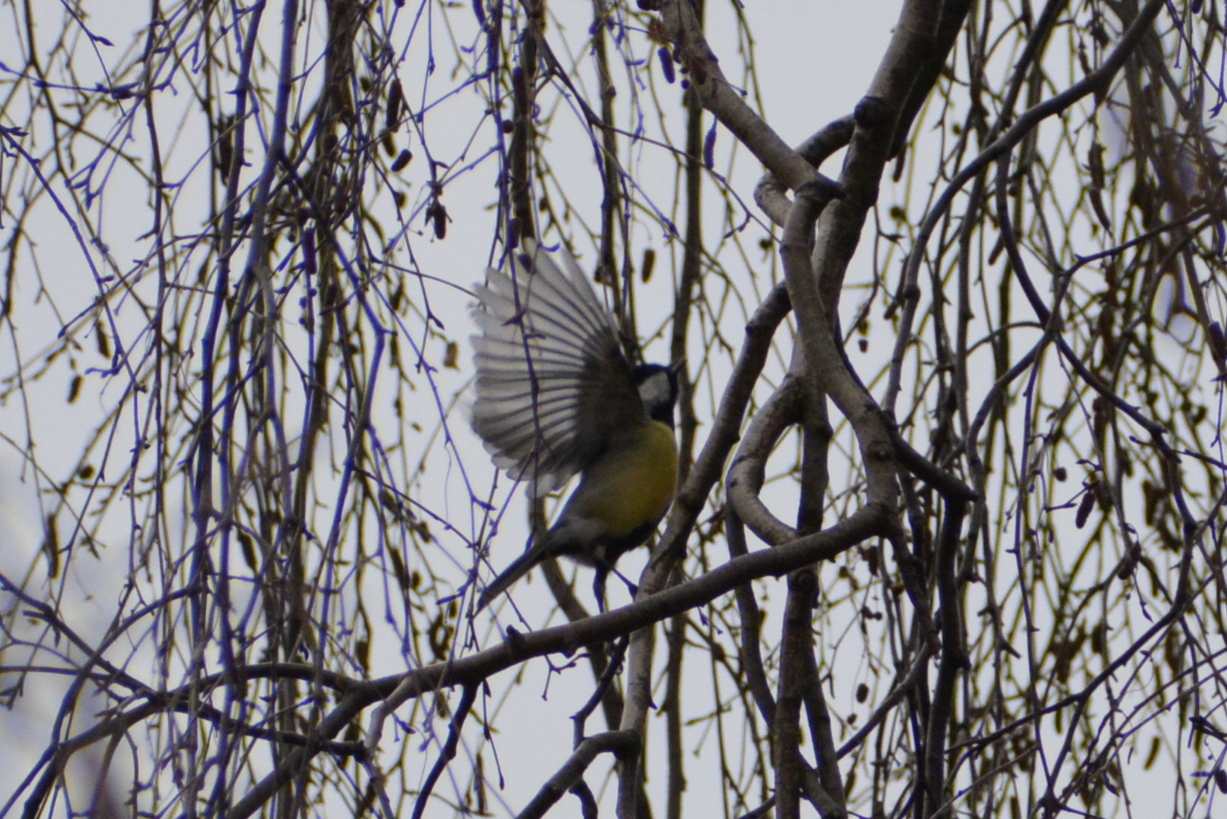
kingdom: Animalia
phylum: Chordata
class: Aves
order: Passeriformes
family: Paridae
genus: Parus
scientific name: Parus major
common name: Great tit
